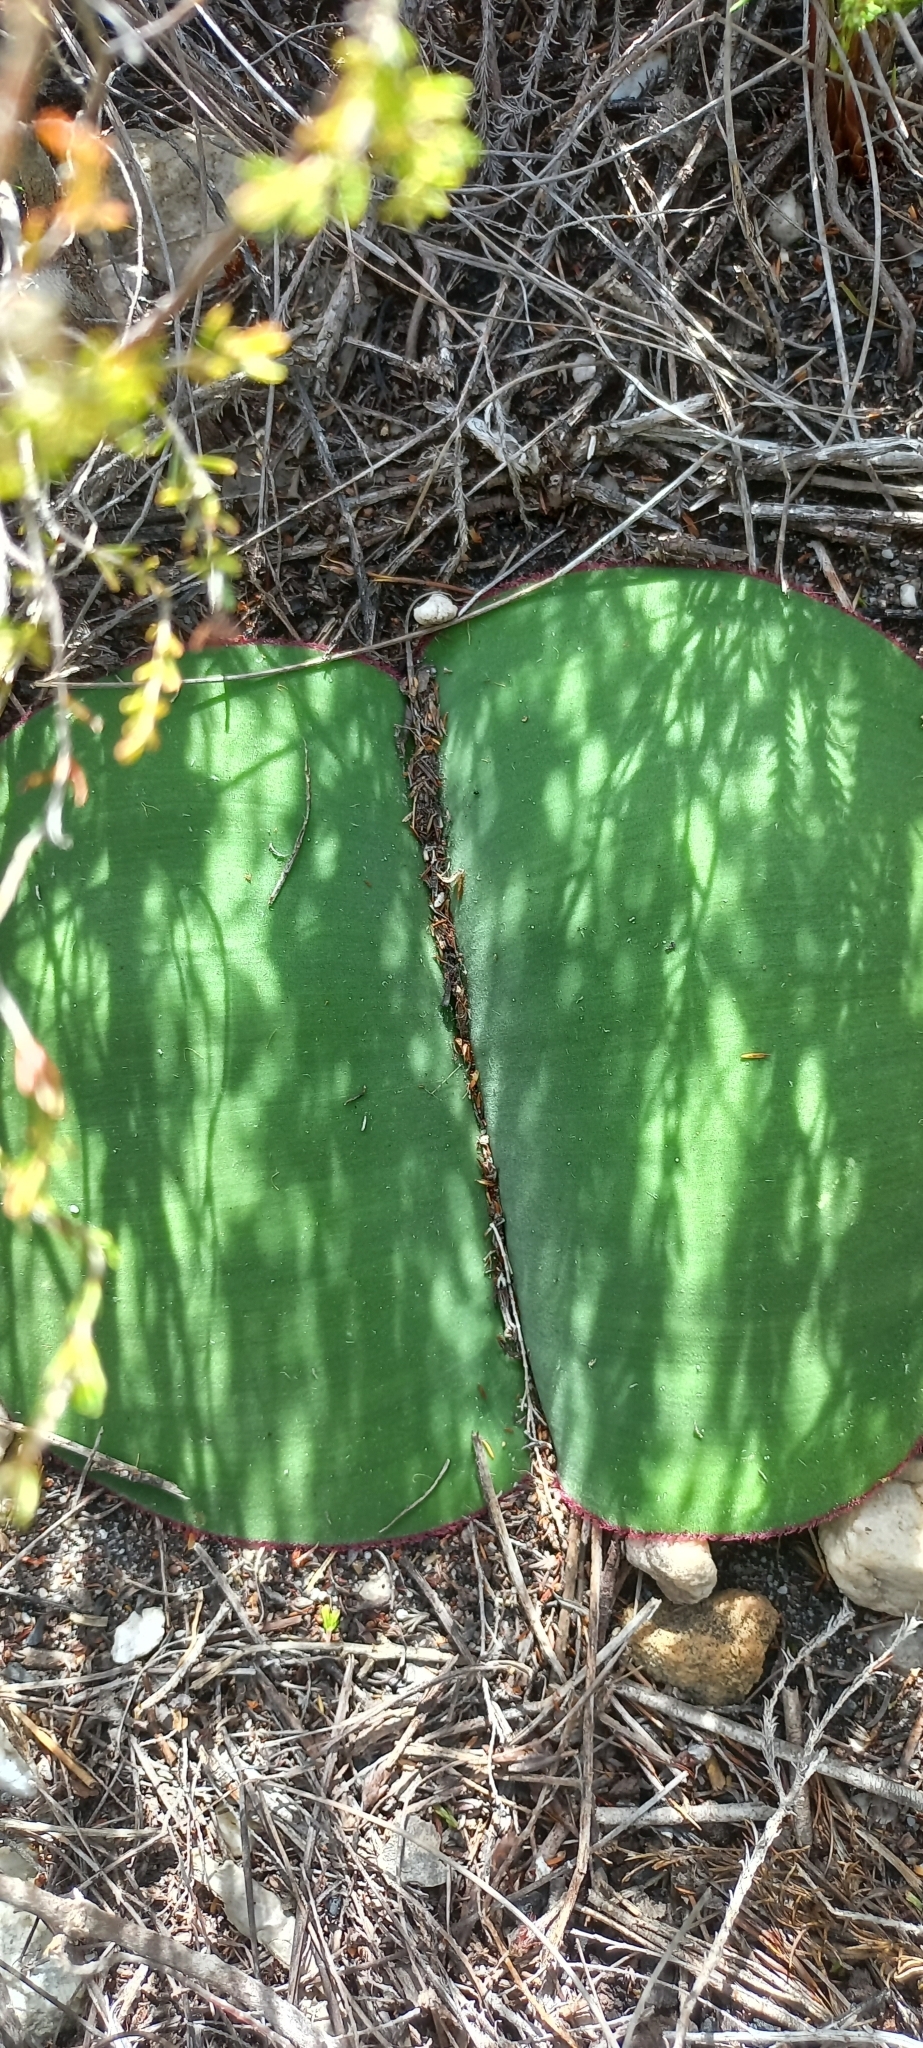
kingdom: Plantae
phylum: Tracheophyta
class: Liliopsida
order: Asparagales
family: Amaryllidaceae
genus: Haemanthus
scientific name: Haemanthus sanguineus
